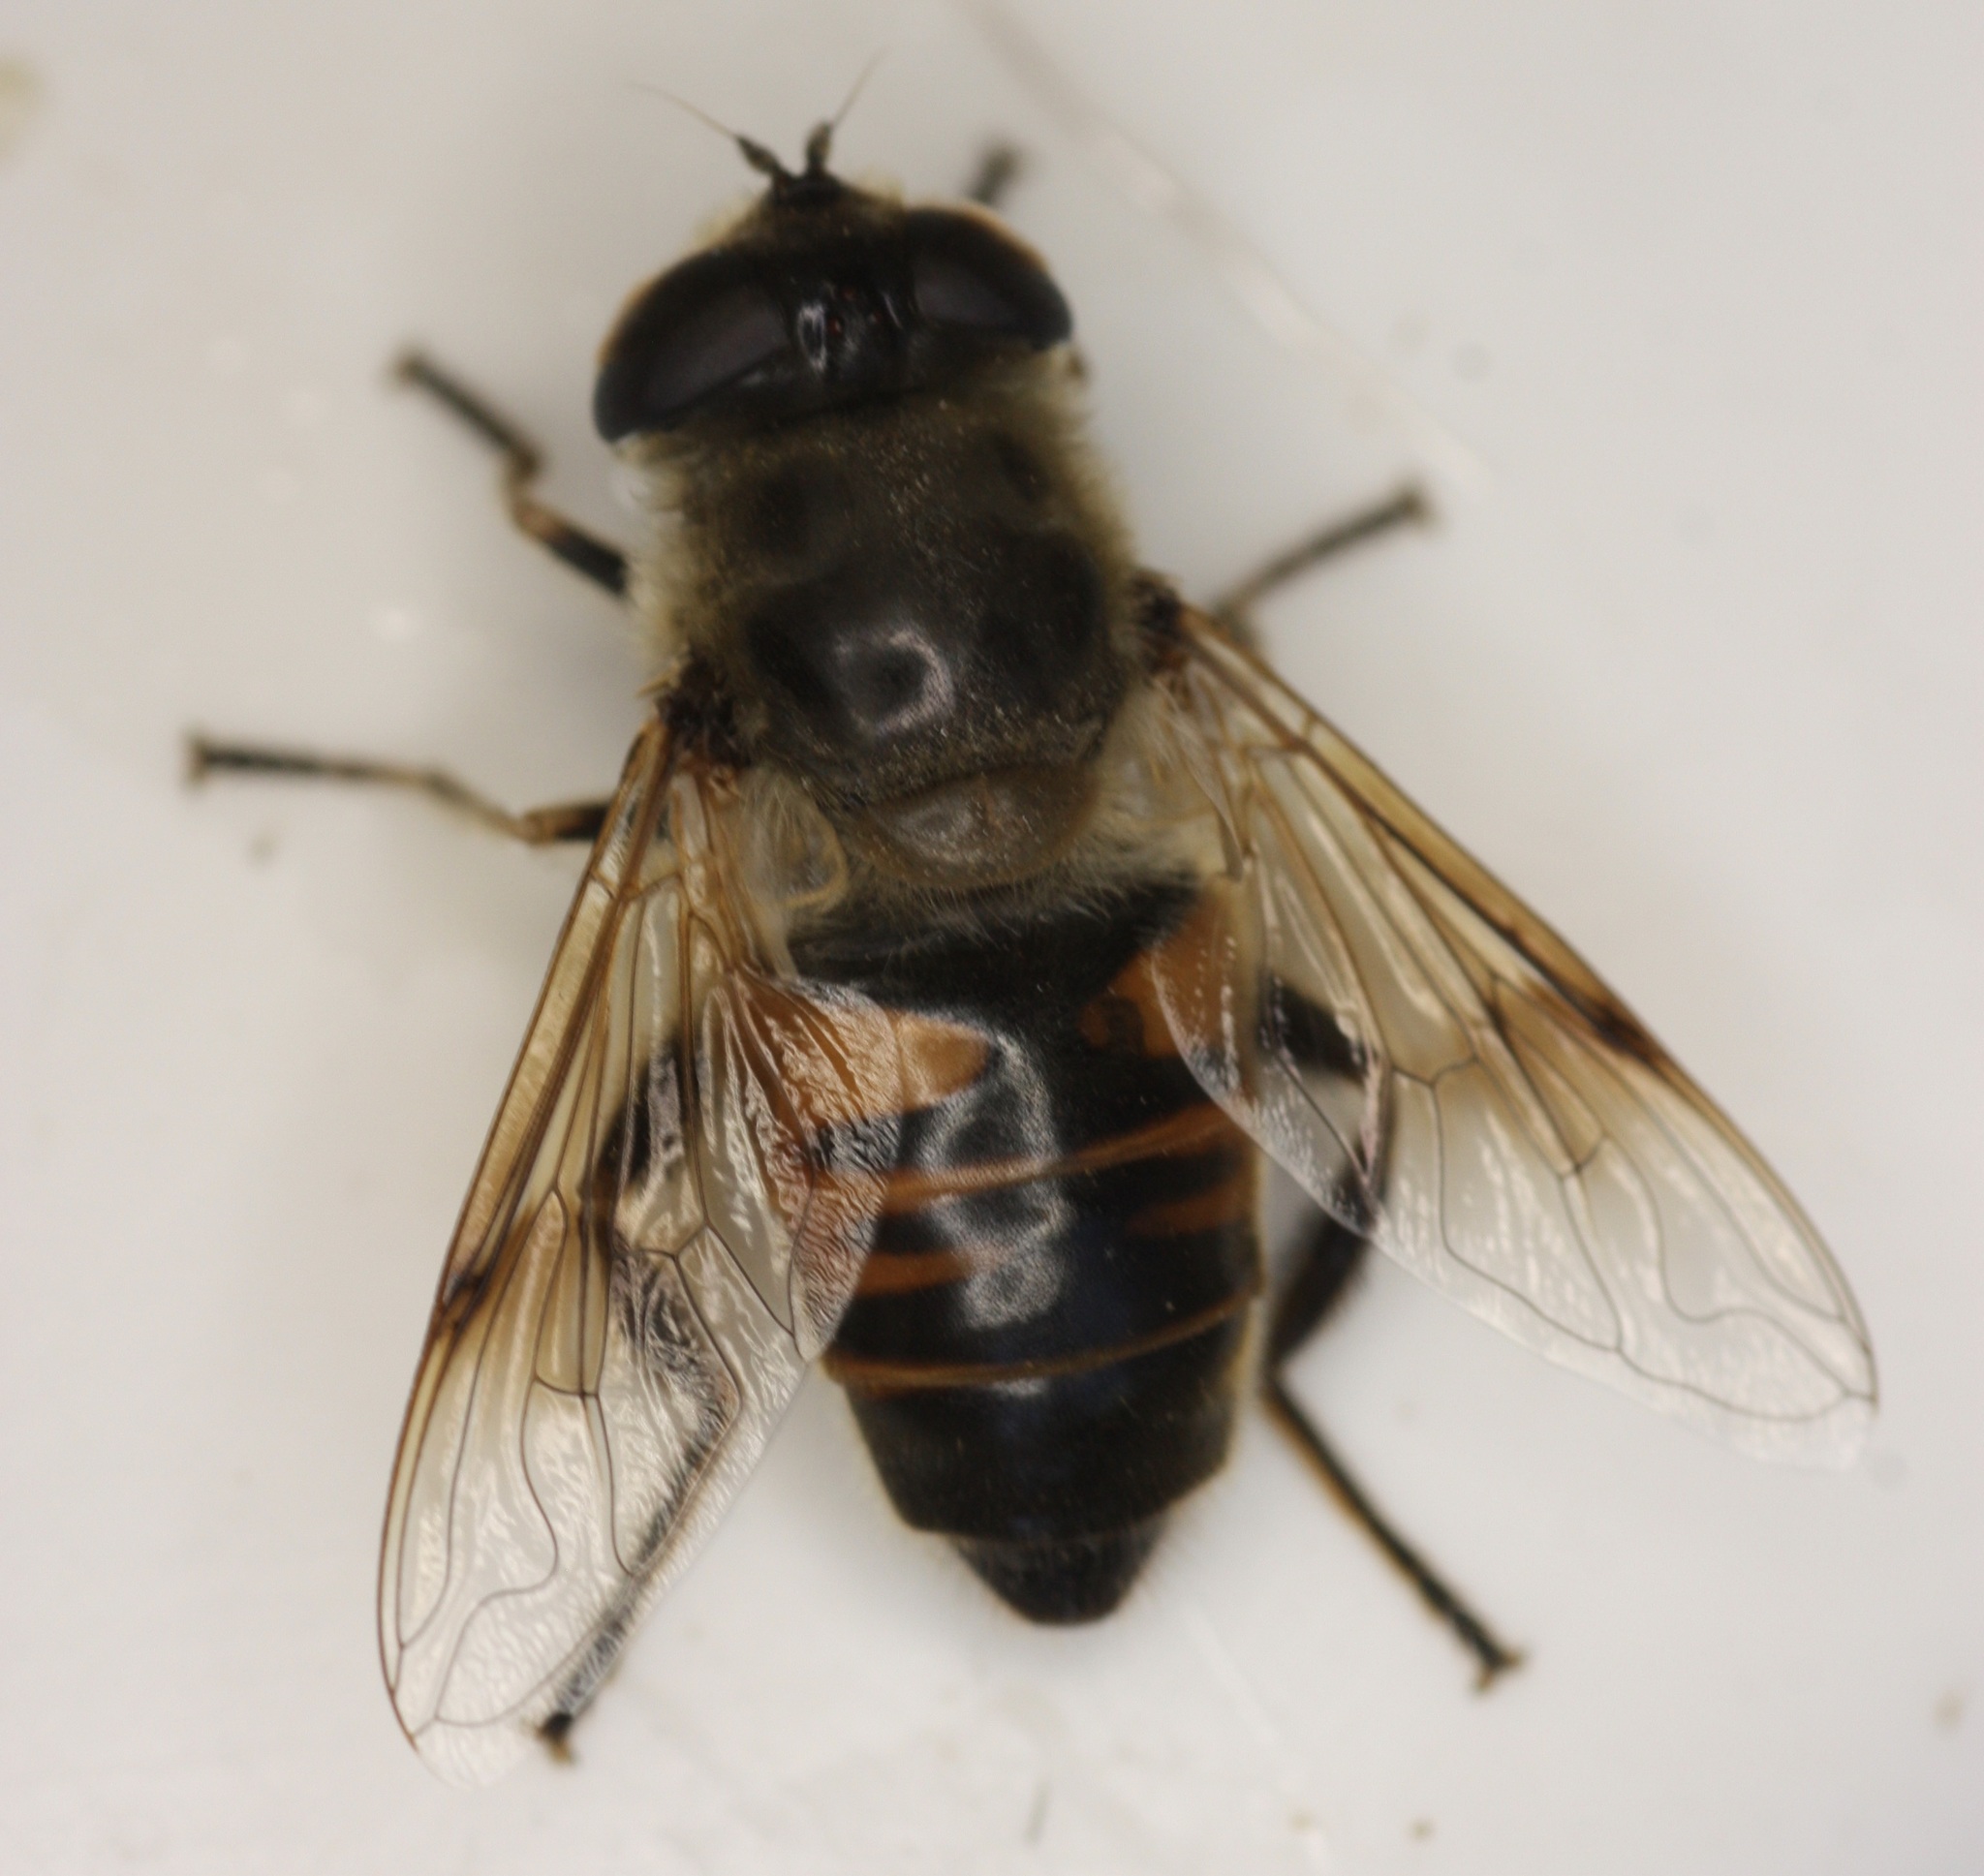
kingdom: Animalia
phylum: Arthropoda
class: Insecta
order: Diptera
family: Syrphidae
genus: Eristalis
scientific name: Eristalis tenax
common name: Drone fly
